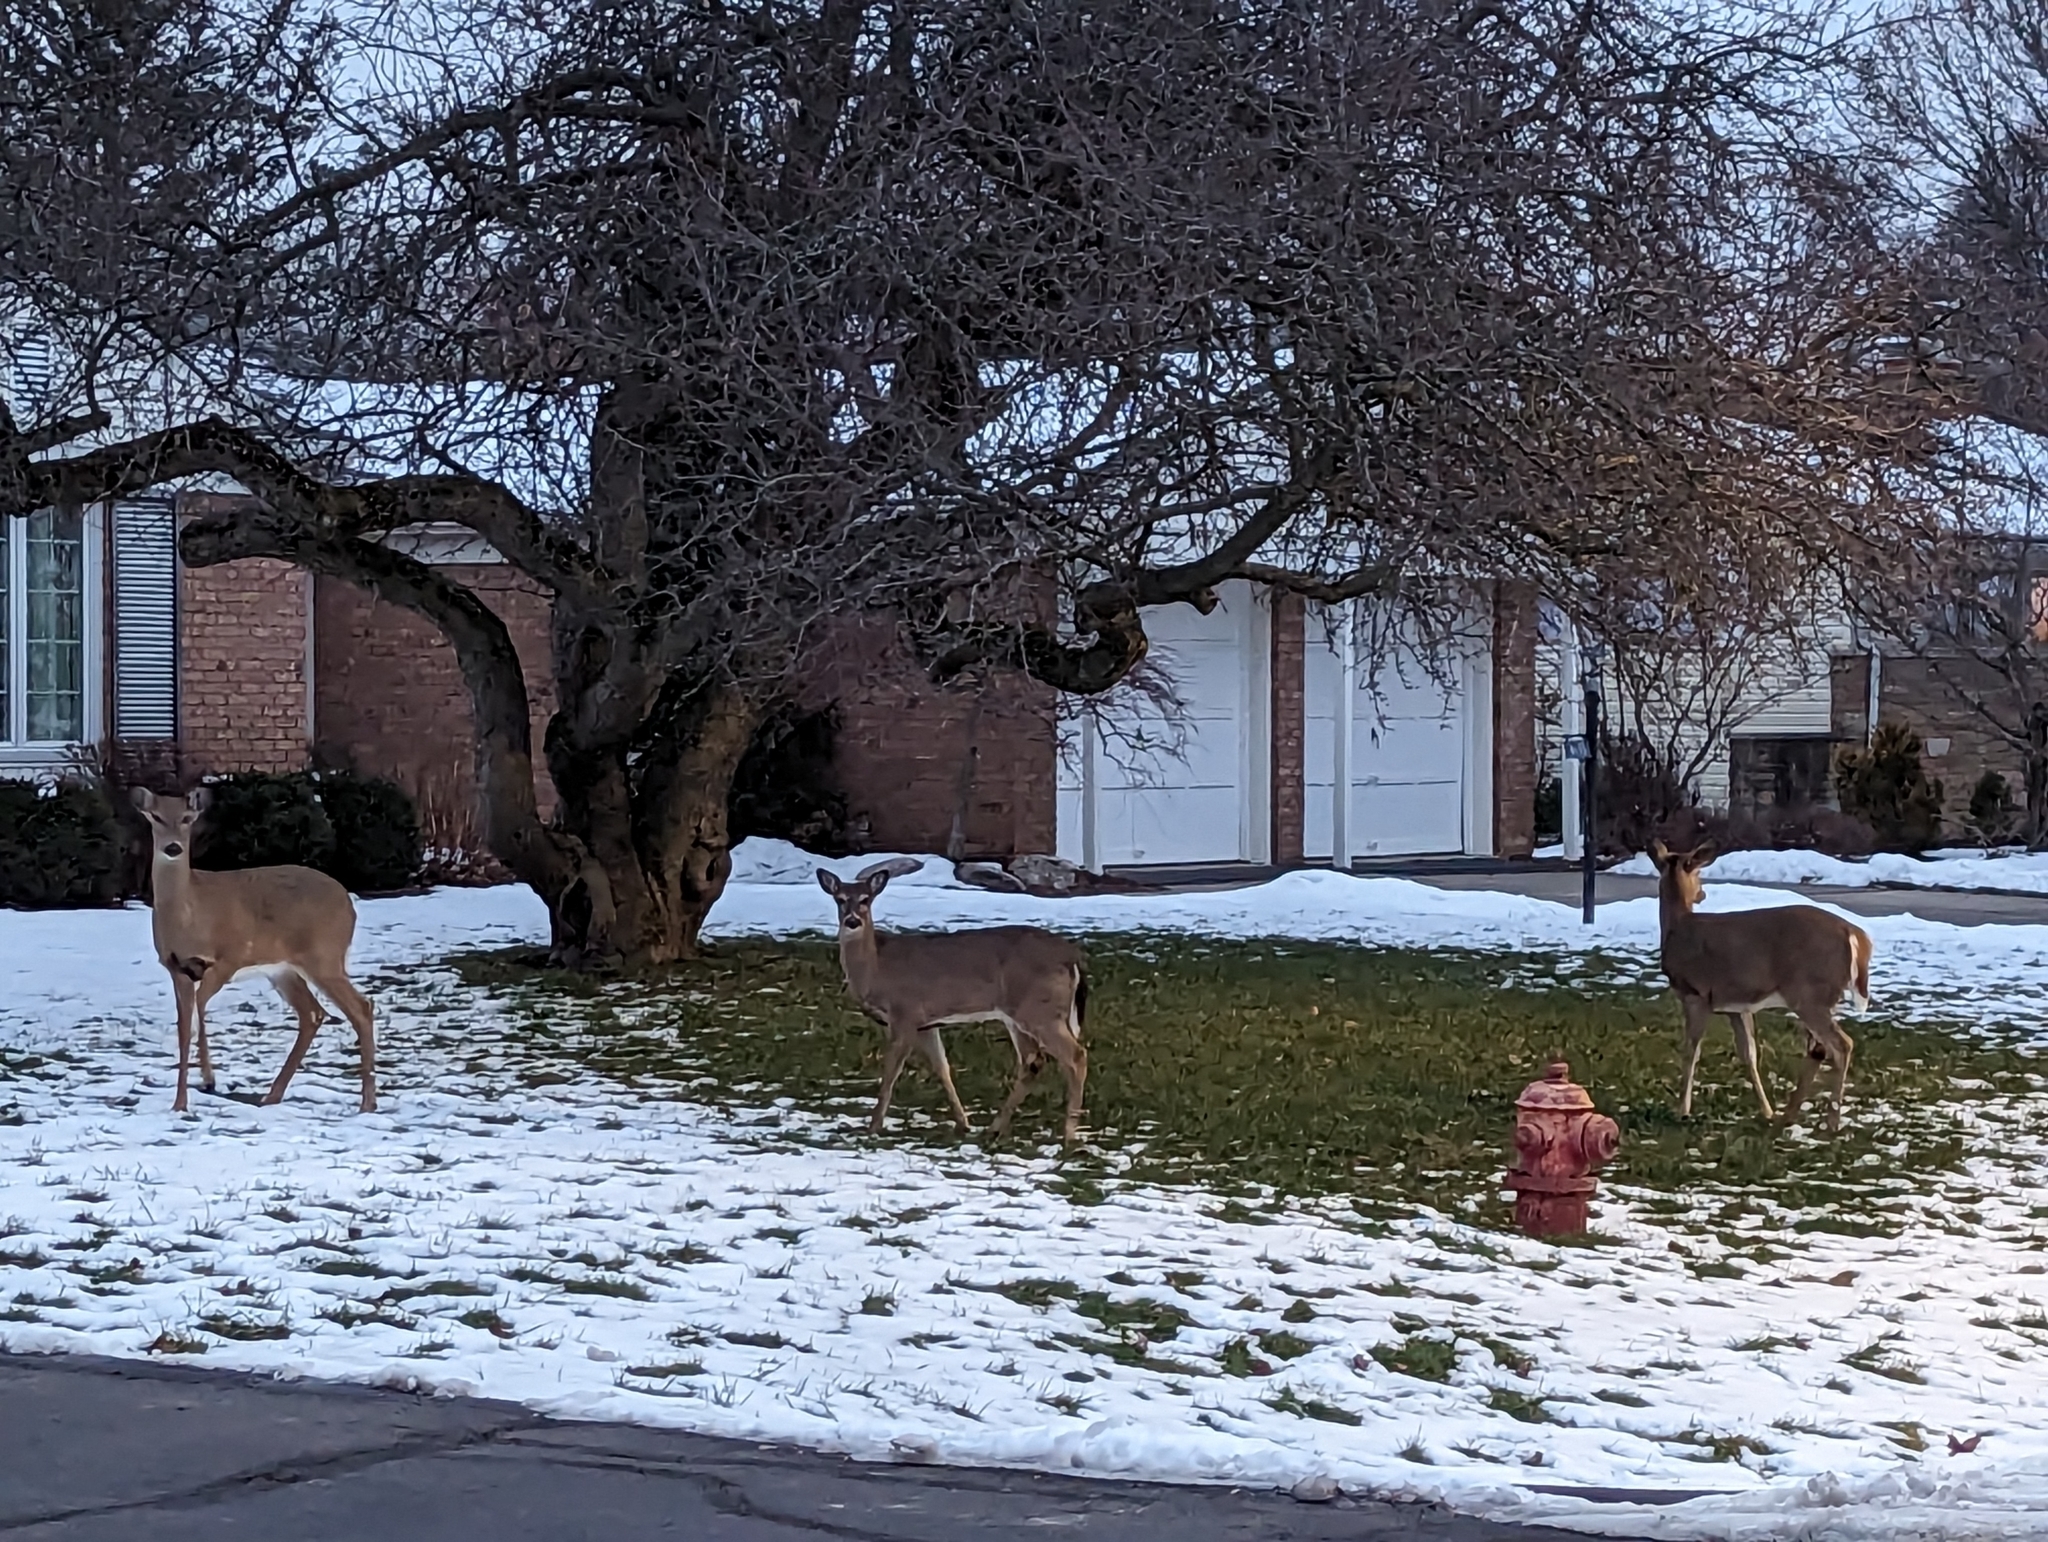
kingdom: Animalia
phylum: Chordata
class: Mammalia
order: Artiodactyla
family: Cervidae
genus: Odocoileus
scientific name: Odocoileus virginianus
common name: White-tailed deer
